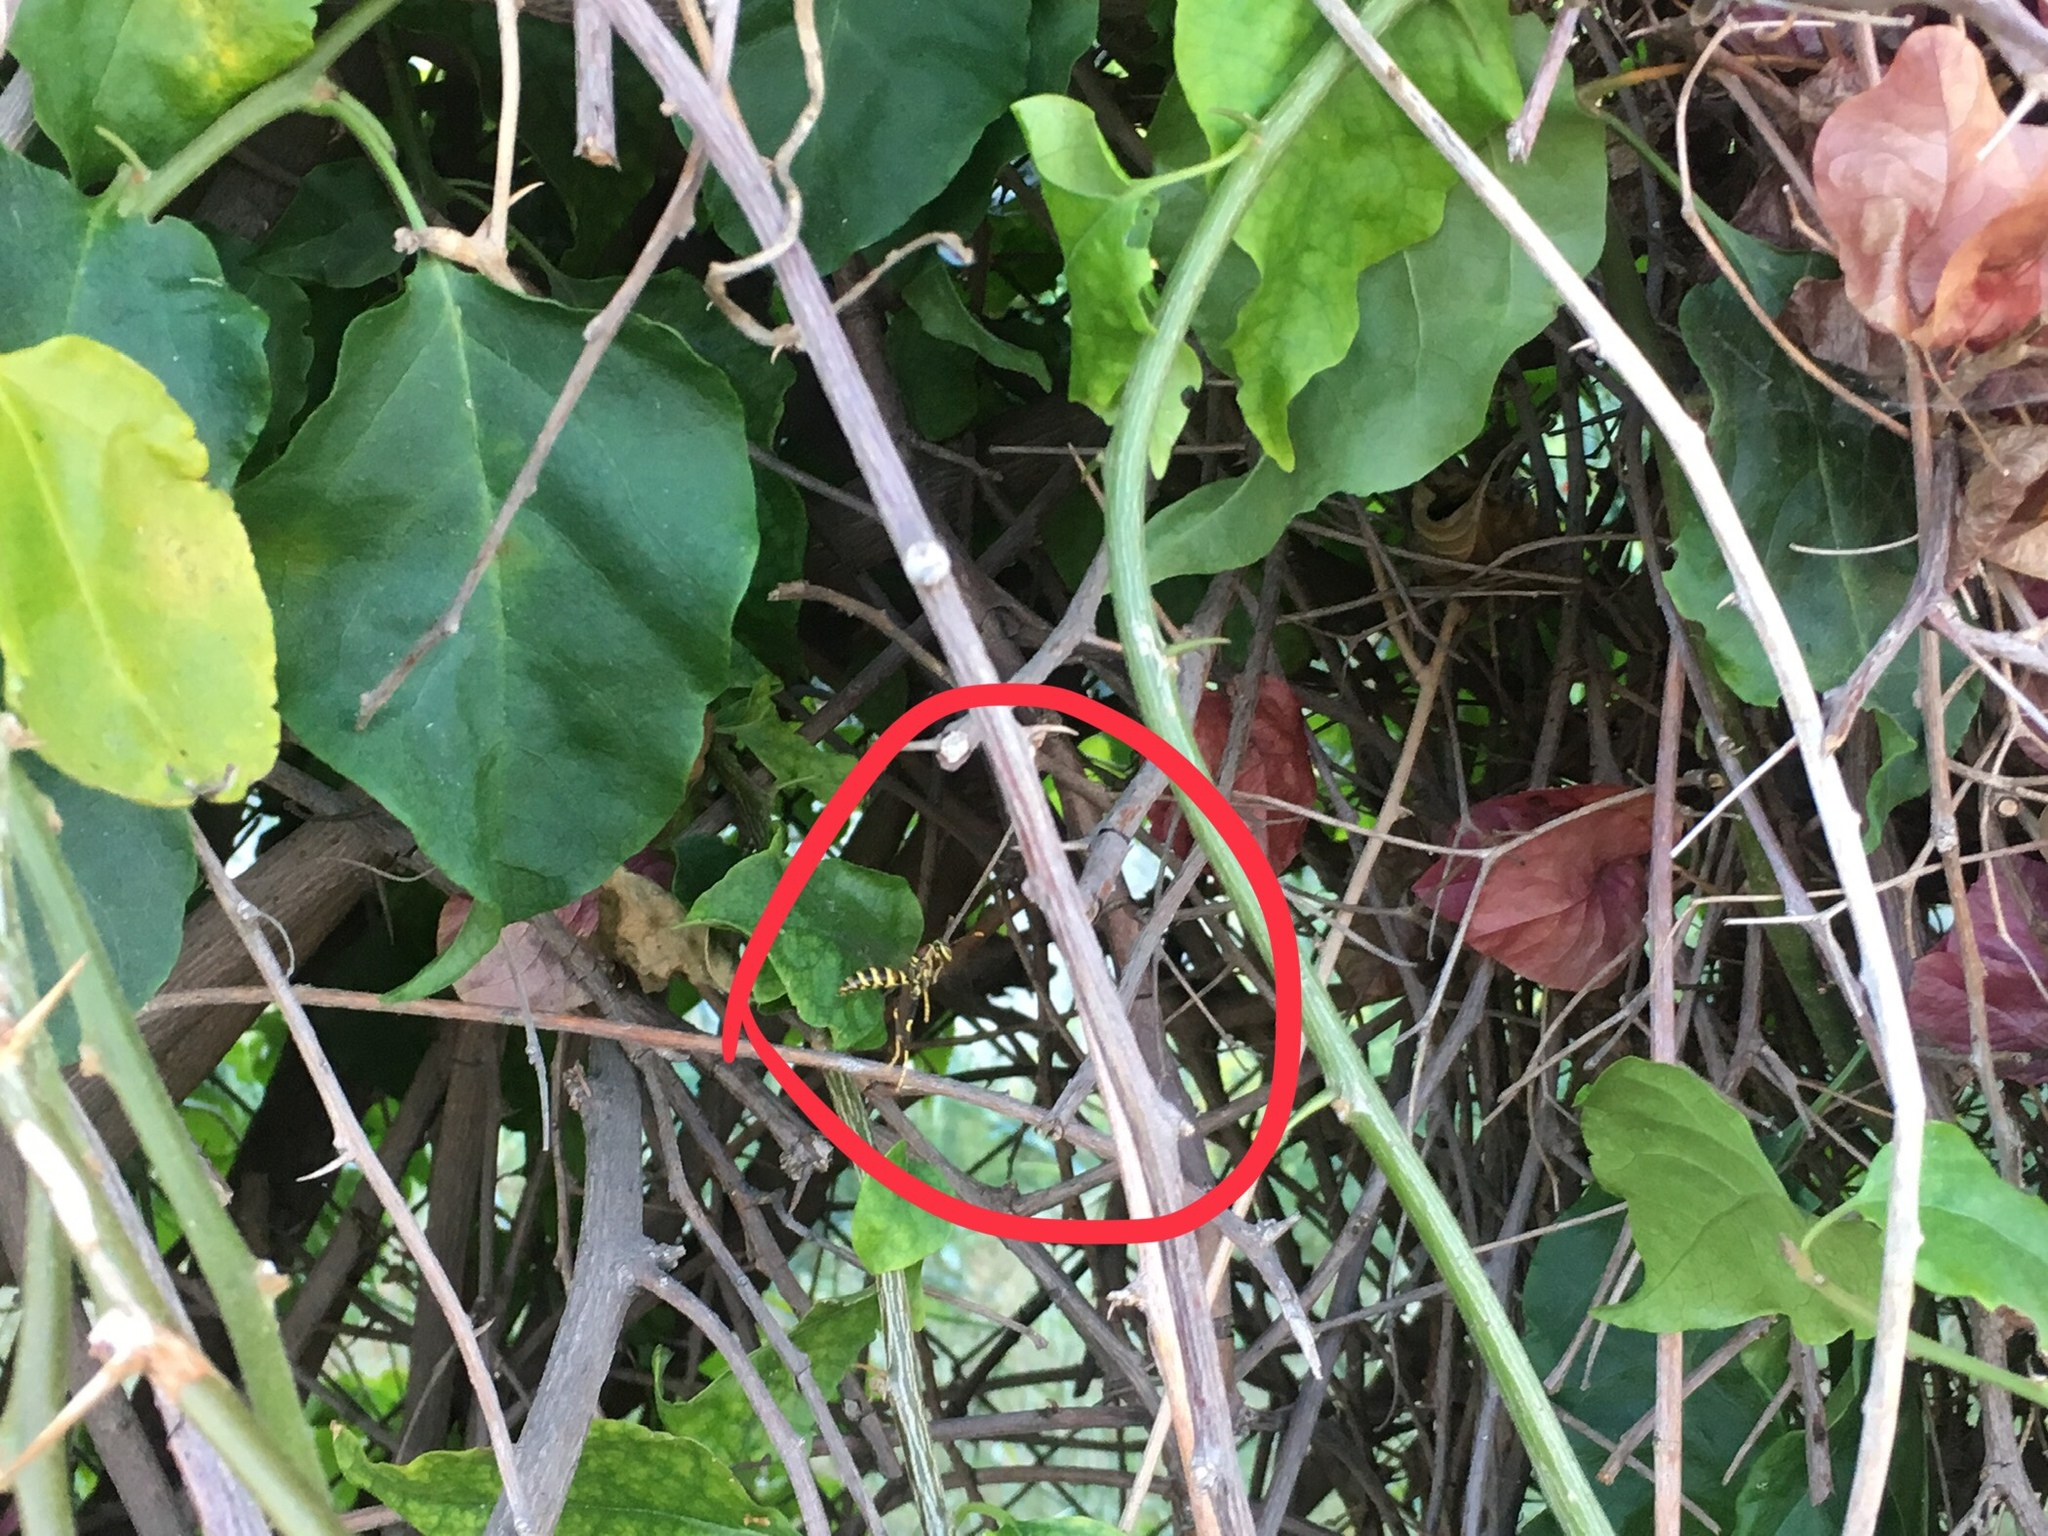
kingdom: Animalia
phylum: Arthropoda
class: Insecta
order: Hymenoptera
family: Eumenidae
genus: Polistes
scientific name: Polistes exclamans
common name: Paper wasp
